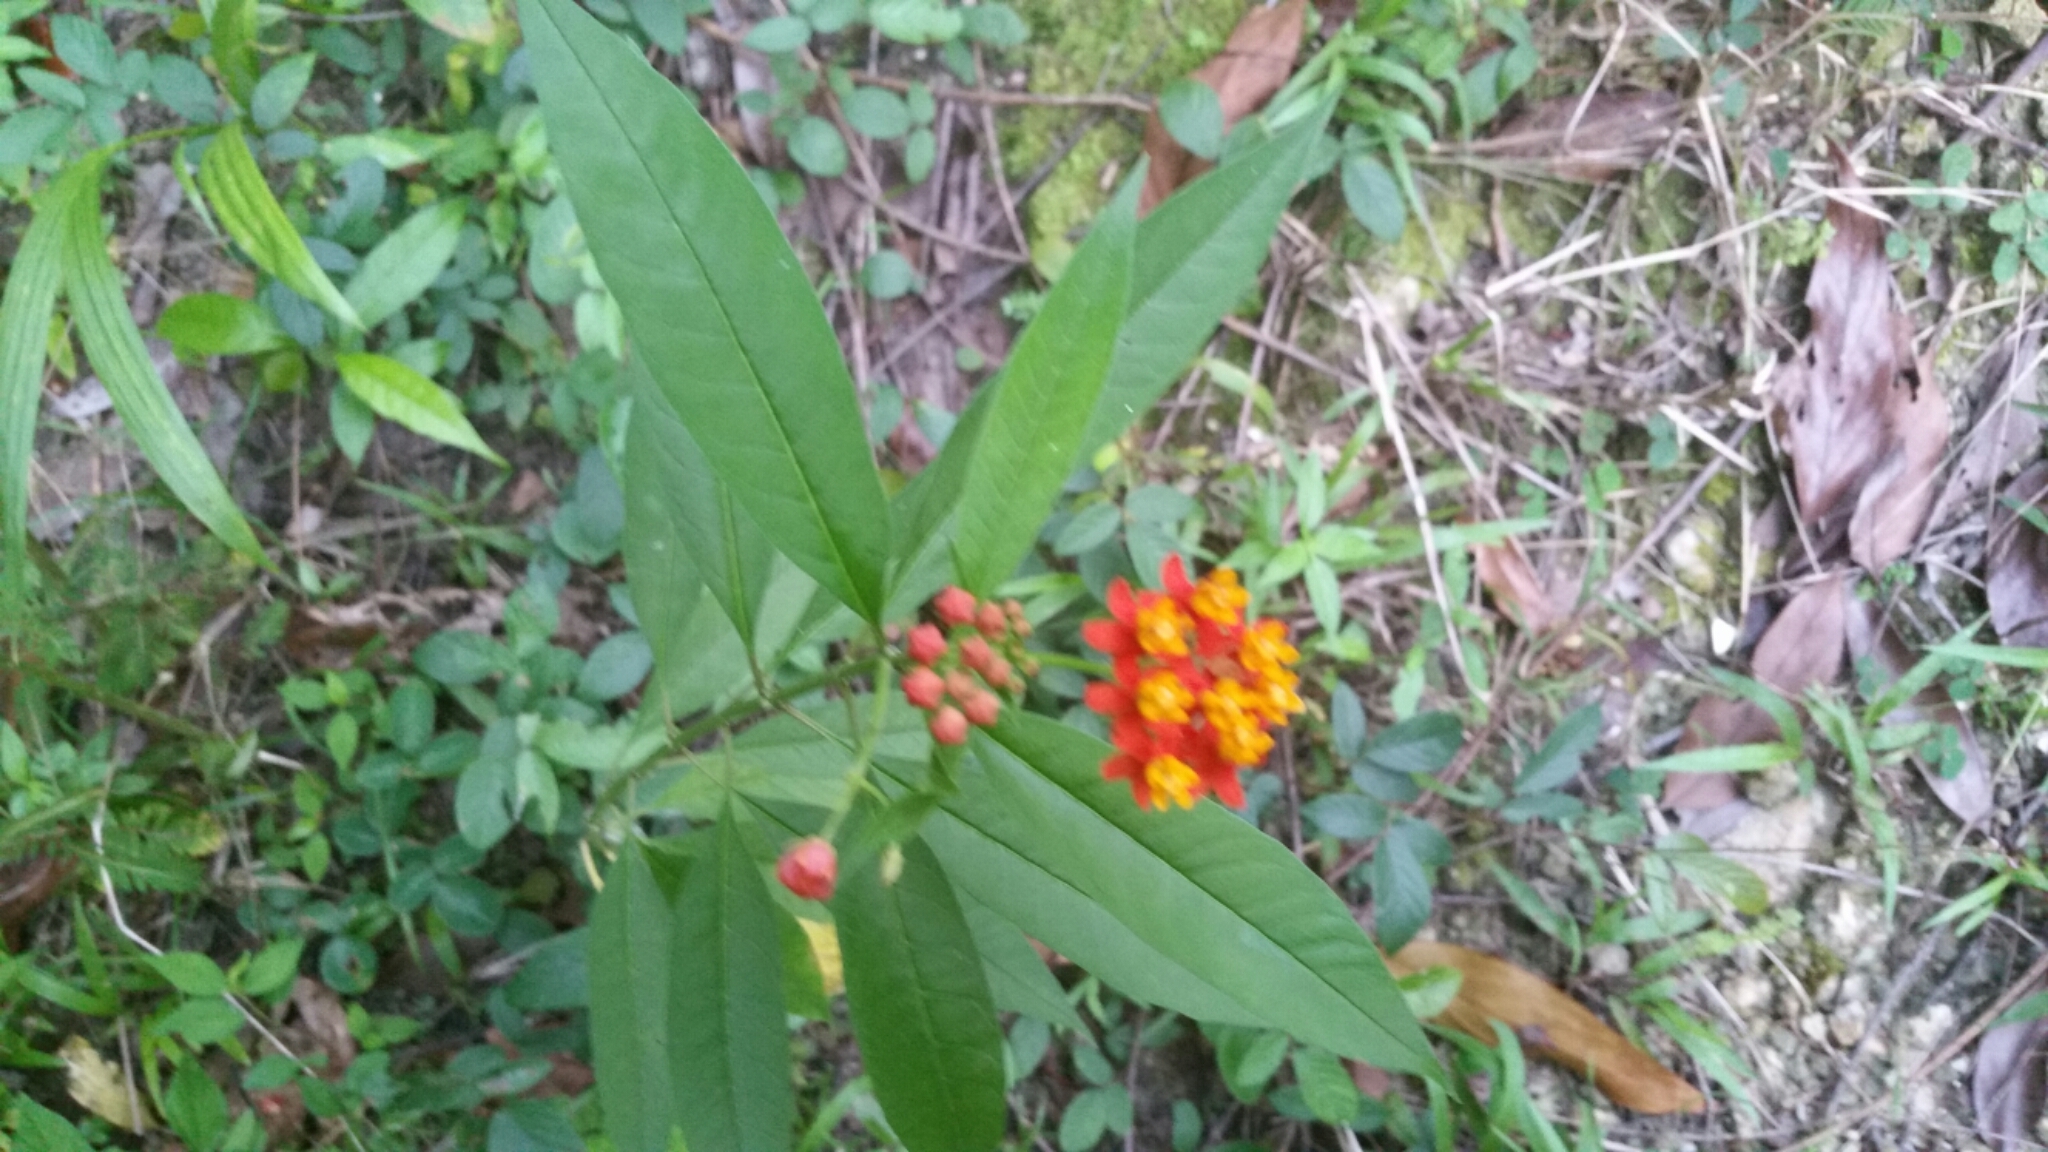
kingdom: Plantae
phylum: Tracheophyta
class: Magnoliopsida
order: Gentianales
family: Apocynaceae
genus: Asclepias
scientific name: Asclepias curassavica
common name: Bloodflower
